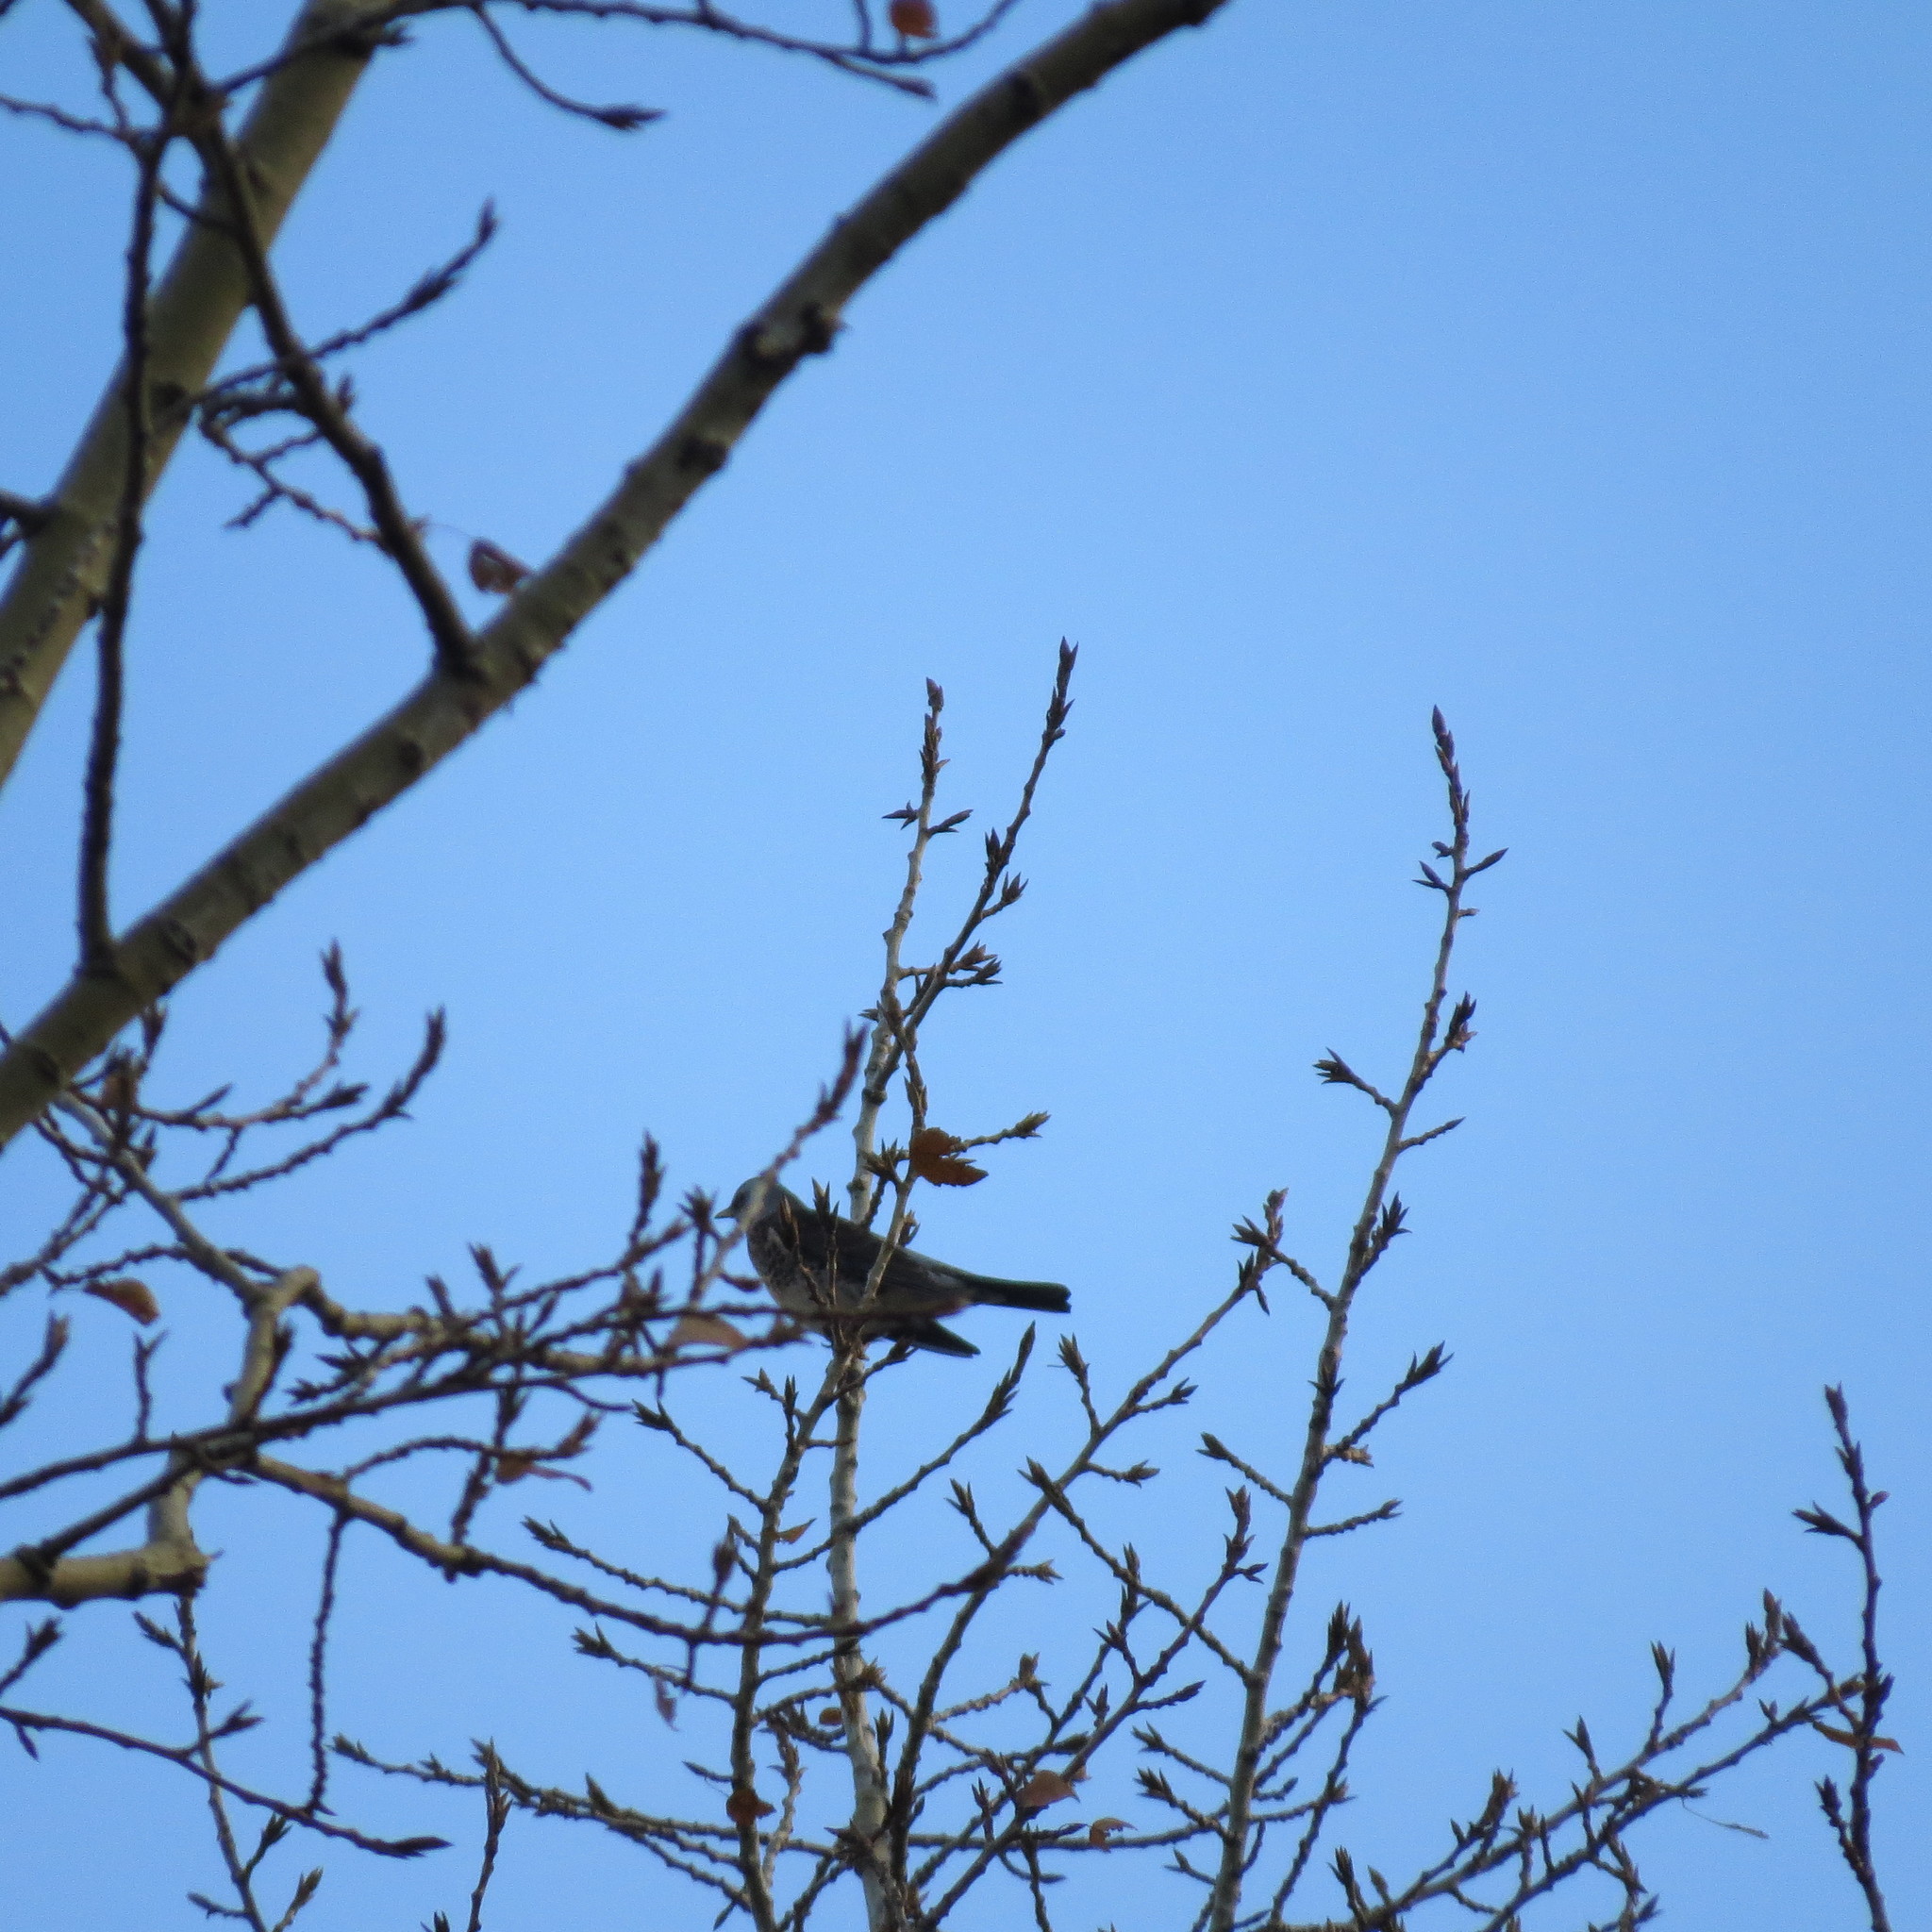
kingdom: Animalia
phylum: Chordata
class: Aves
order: Passeriformes
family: Turdidae
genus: Turdus
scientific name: Turdus pilaris
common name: Fieldfare
